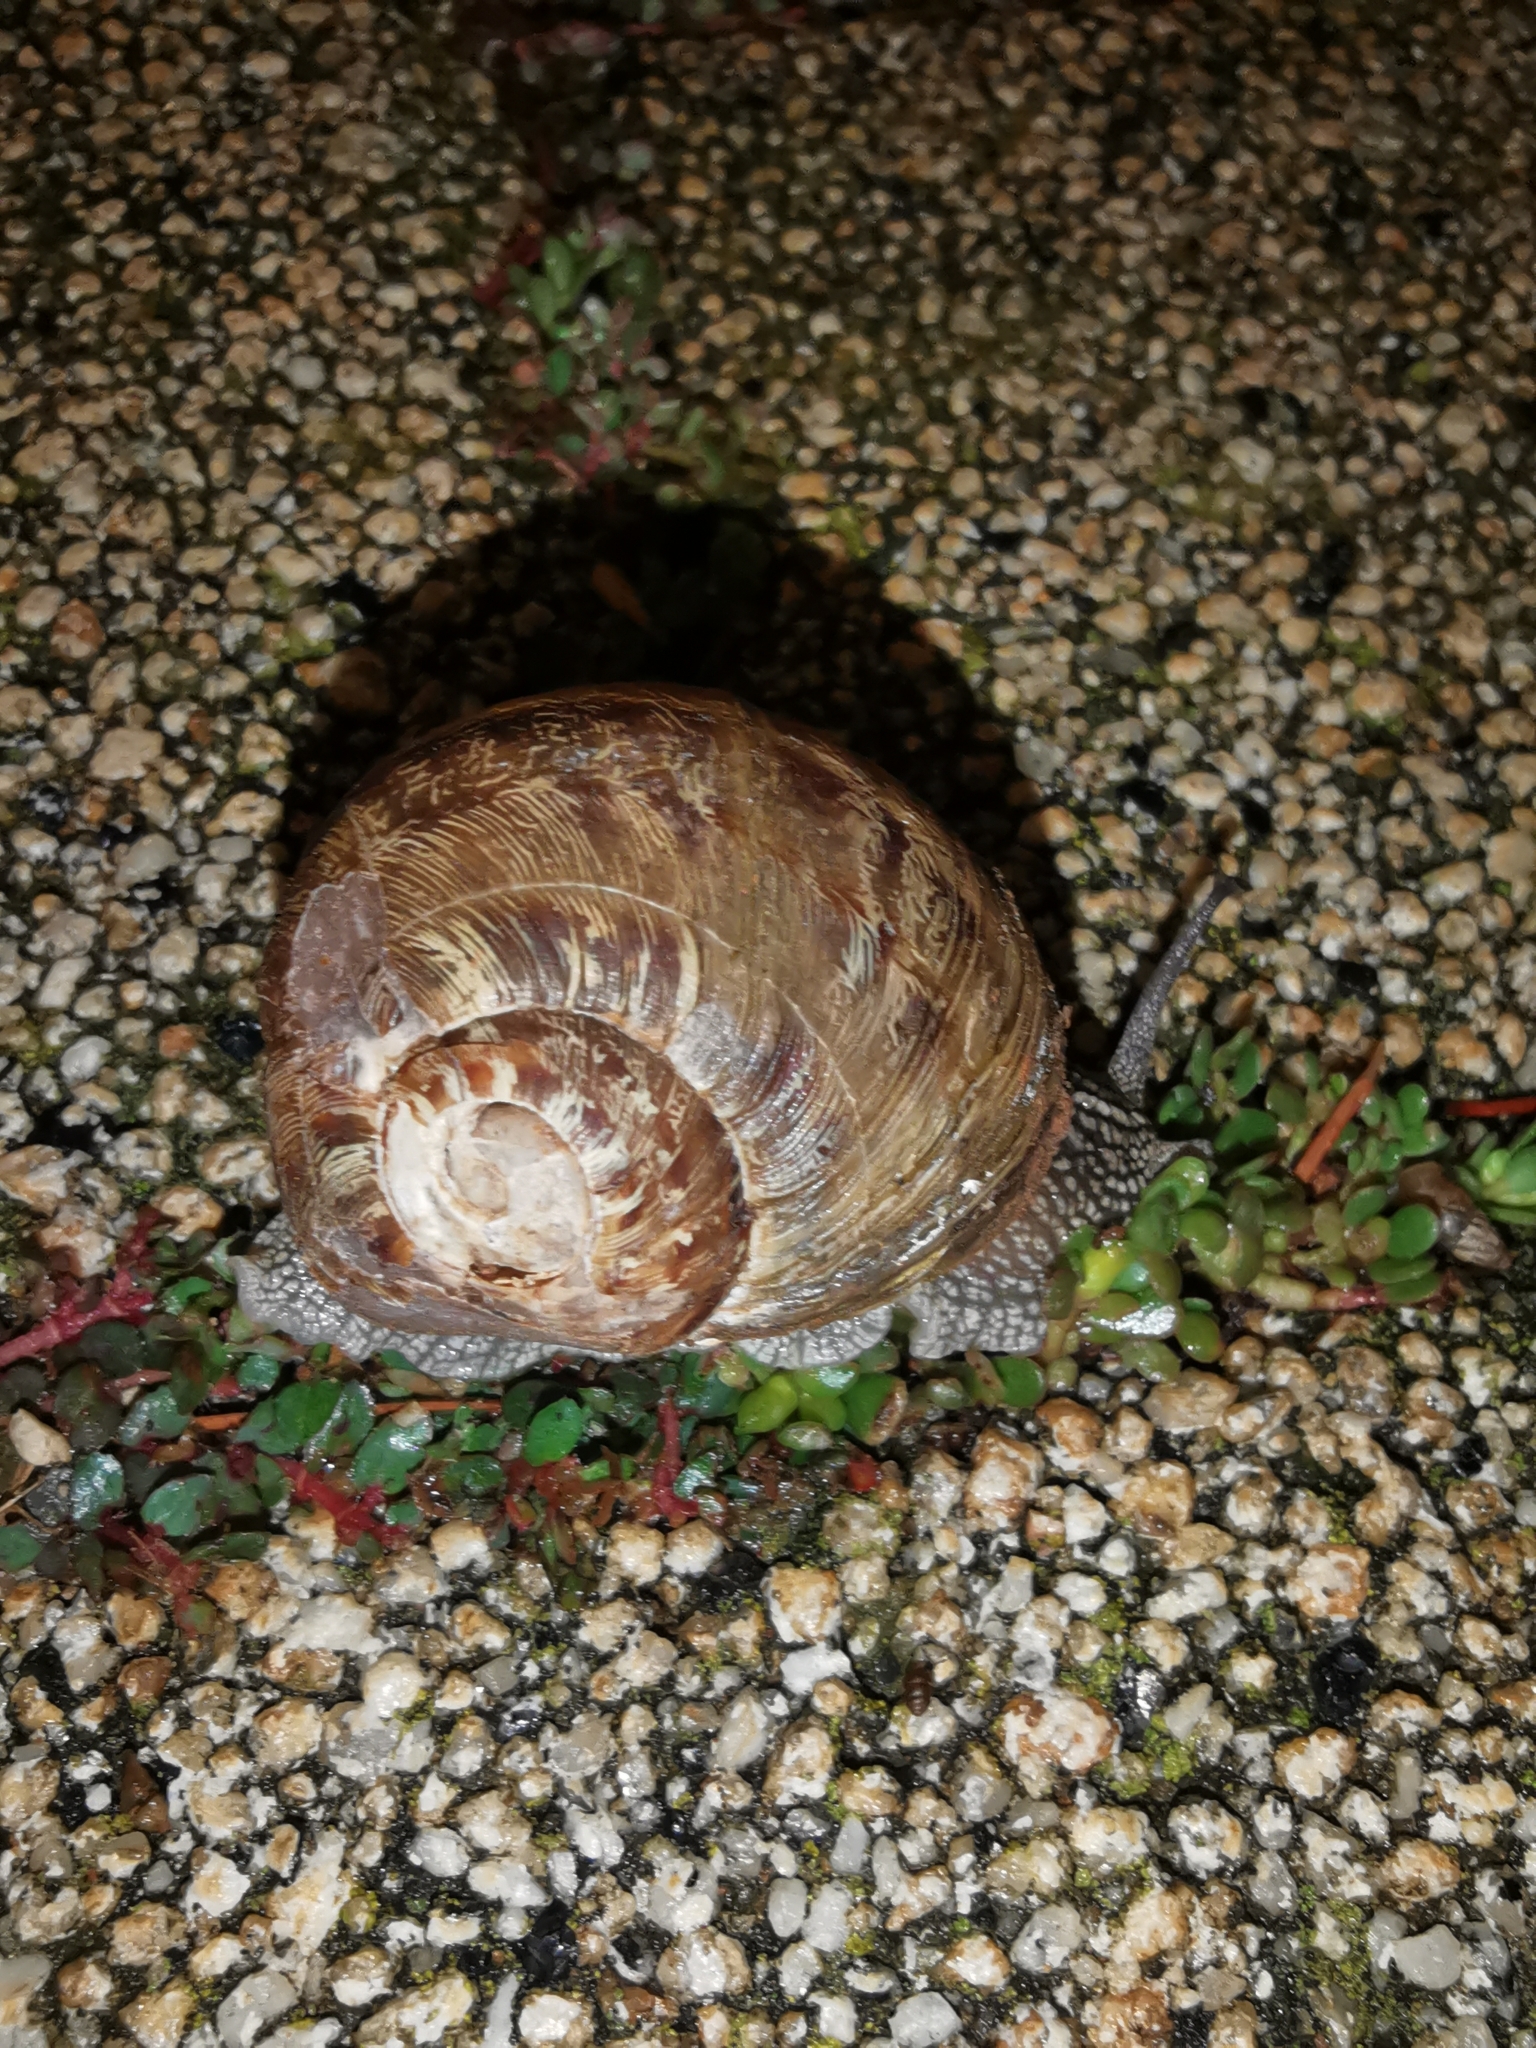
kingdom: Animalia
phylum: Mollusca
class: Gastropoda
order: Stylommatophora
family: Helicidae
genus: Cornu
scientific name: Cornu aspersum
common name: Brown garden snail
